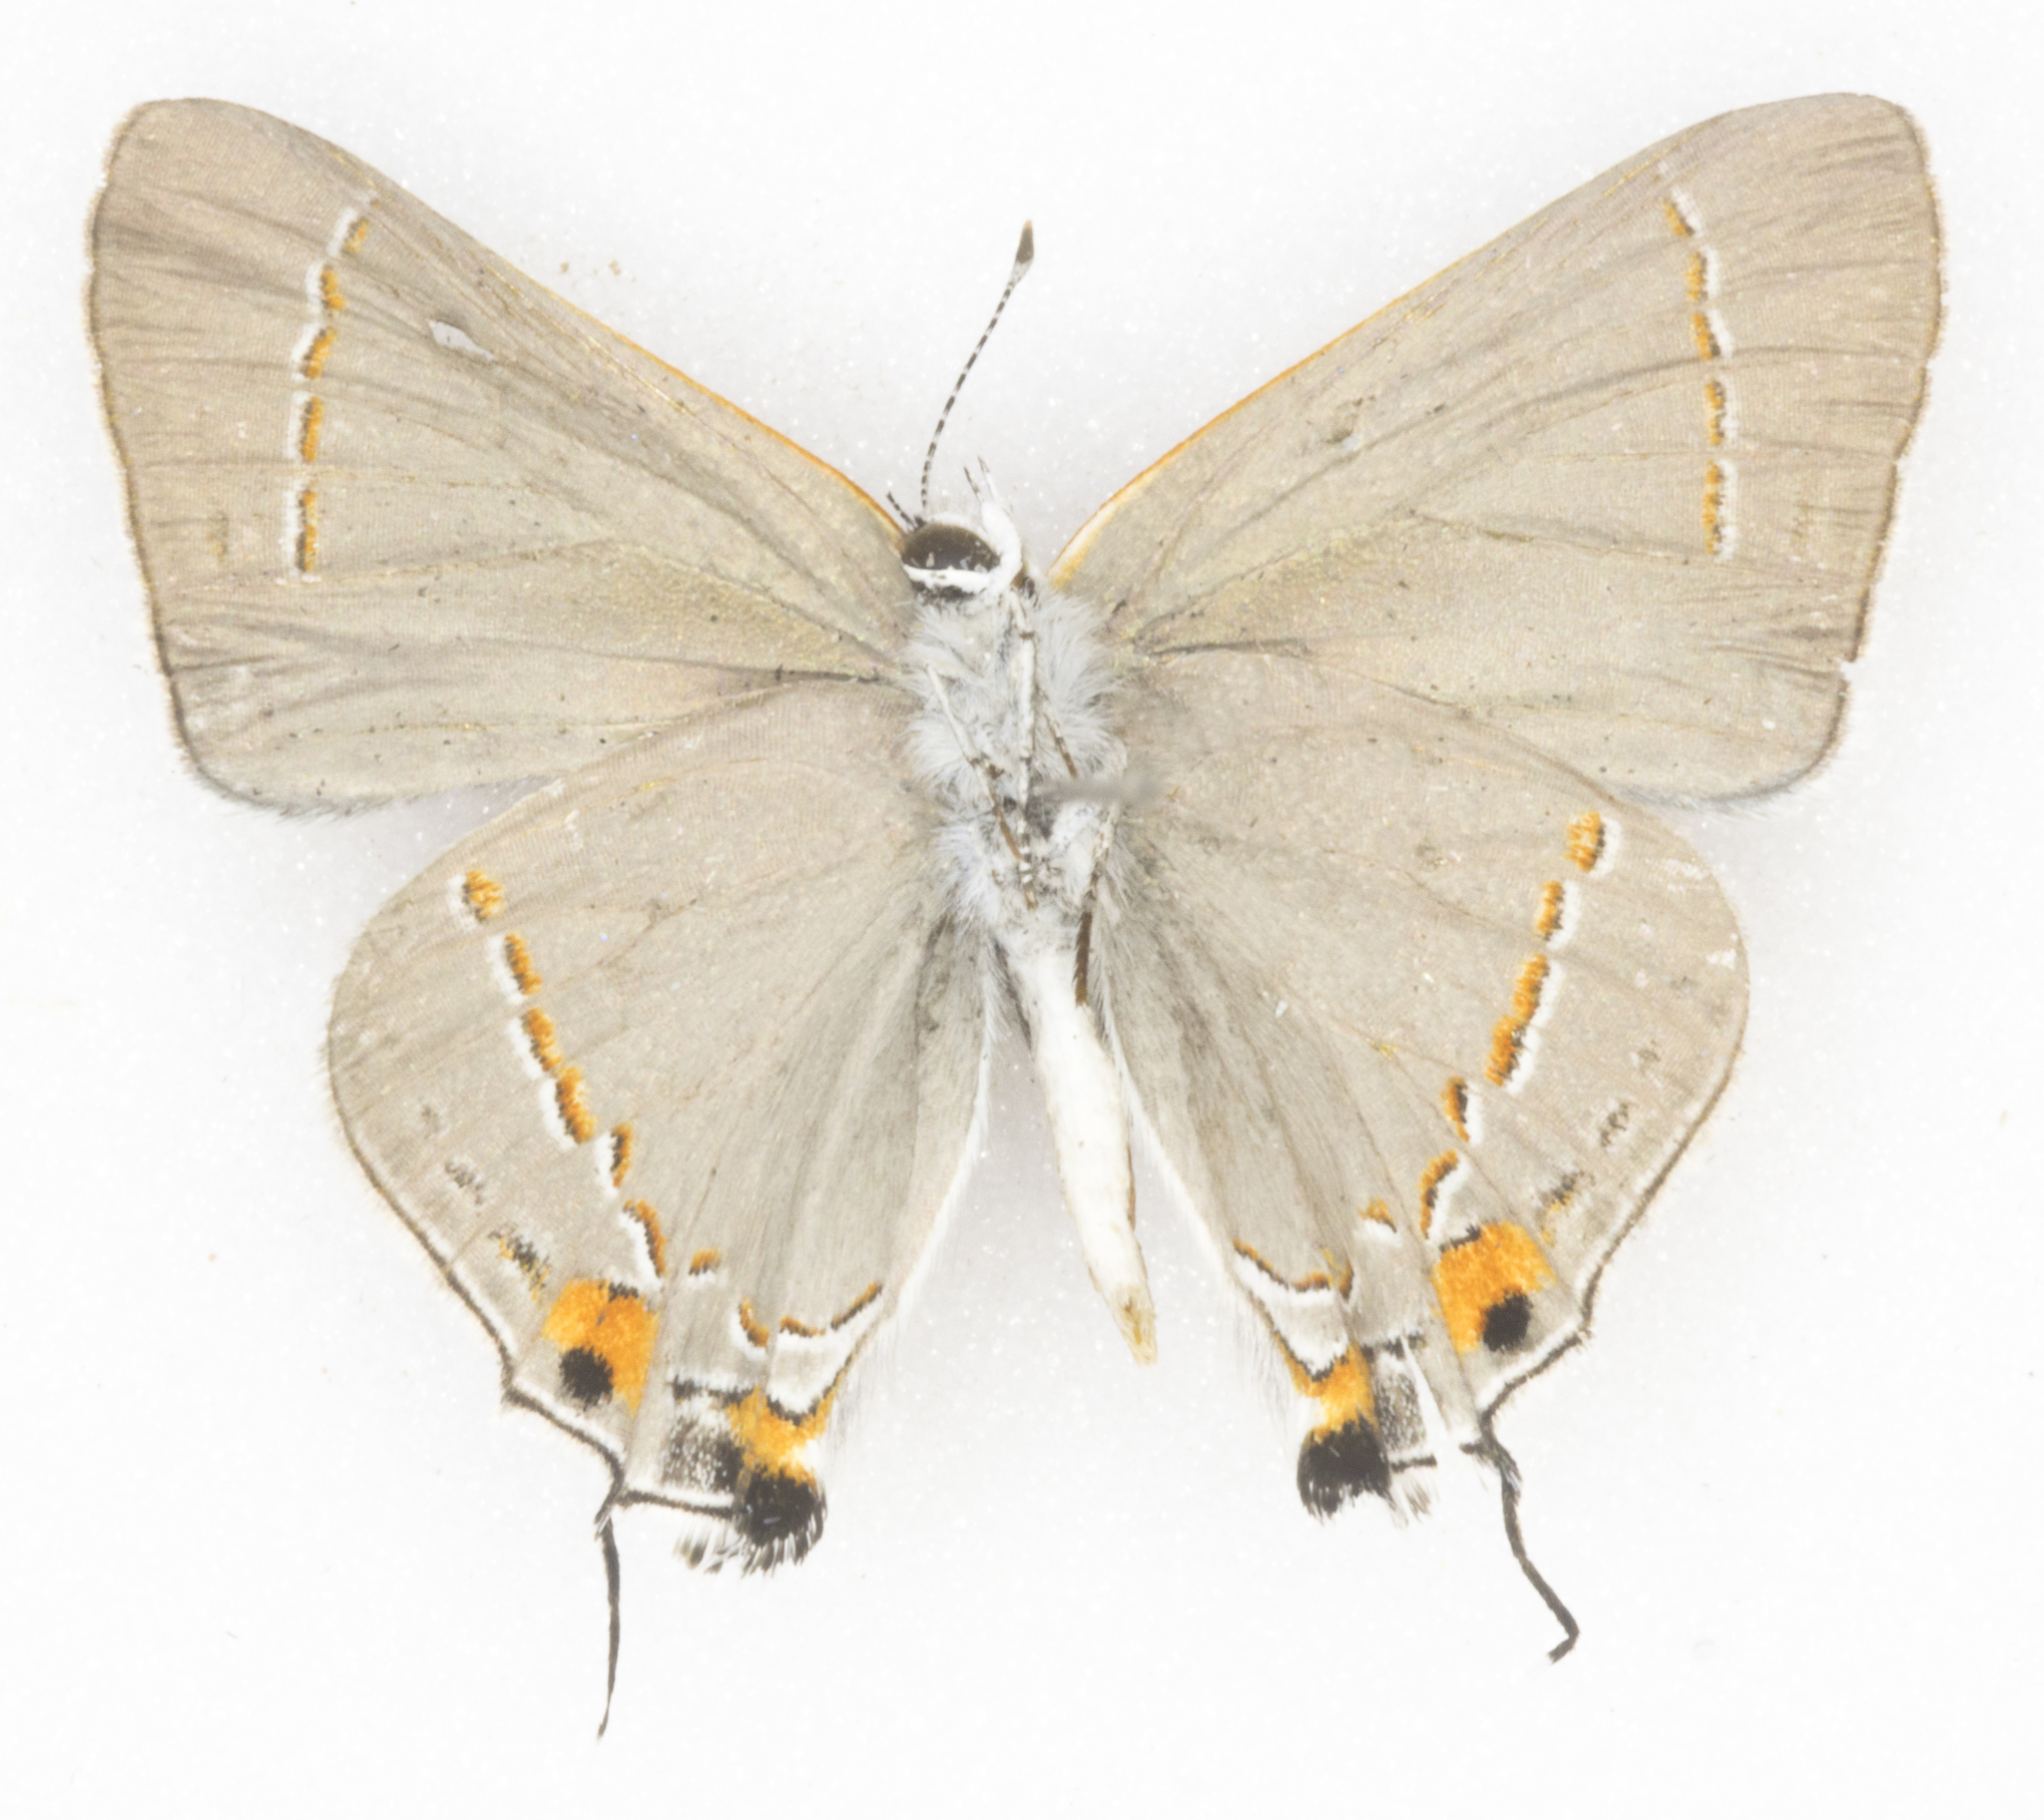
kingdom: Animalia
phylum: Arthropoda
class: Insecta
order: Lepidoptera
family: Lycaenidae
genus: Strymon
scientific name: Strymon melinus
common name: Gray hairstreak
